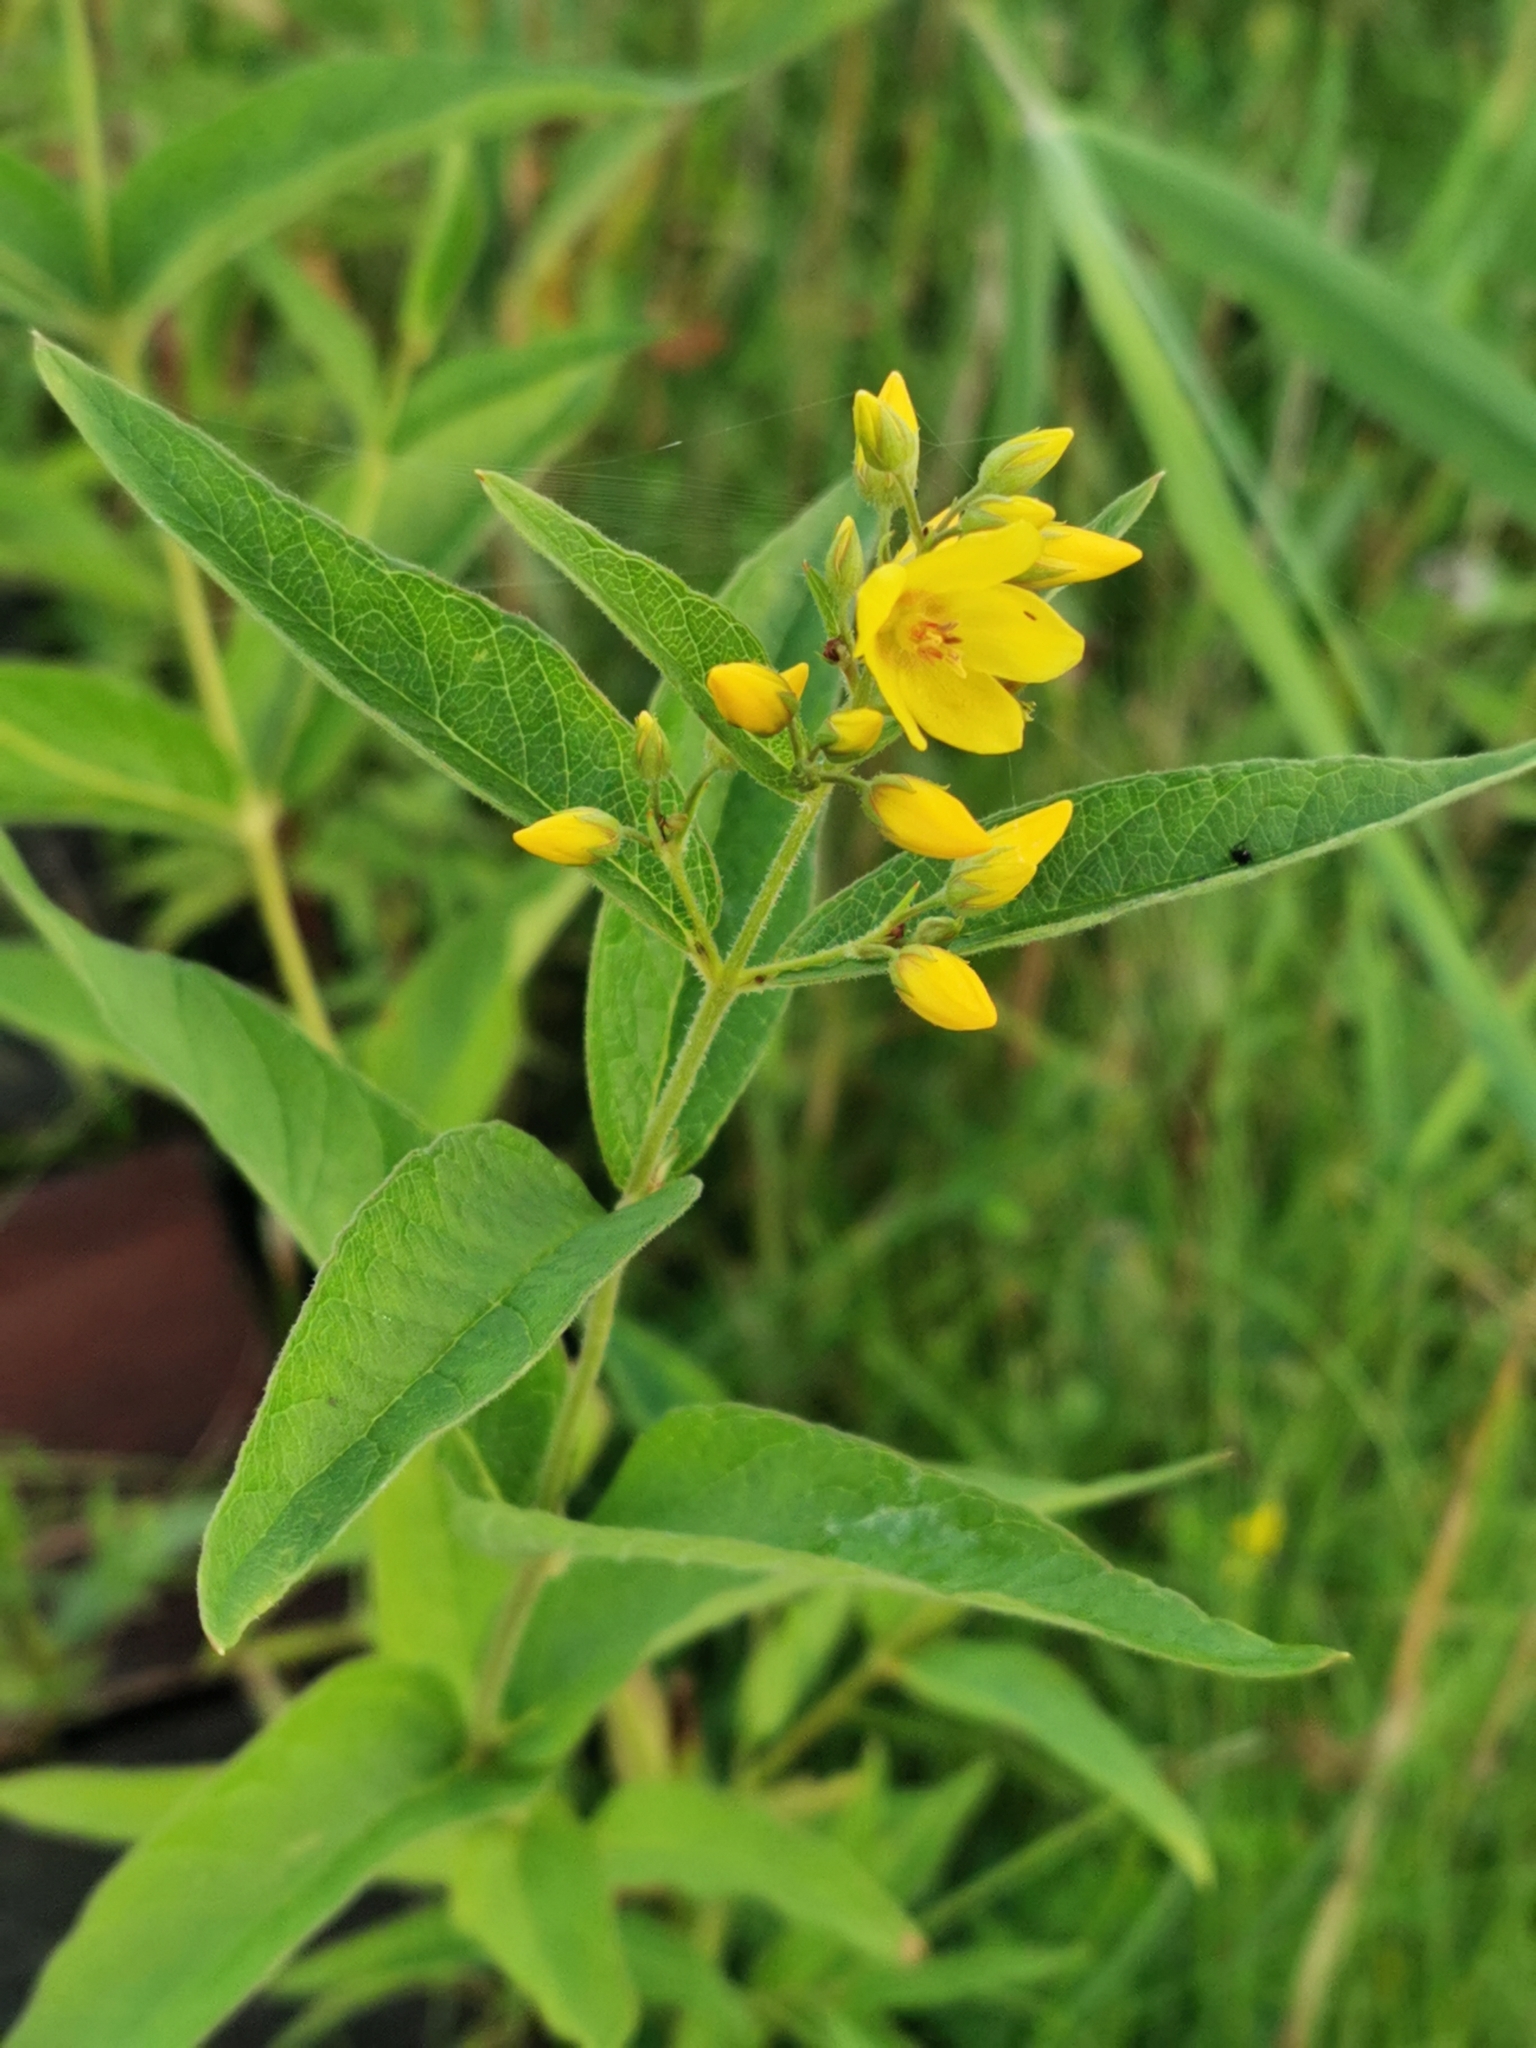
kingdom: Plantae
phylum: Tracheophyta
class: Magnoliopsida
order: Ericales
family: Primulaceae
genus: Lysimachia
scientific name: Lysimachia vulgaris
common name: Yellow loosestrife
